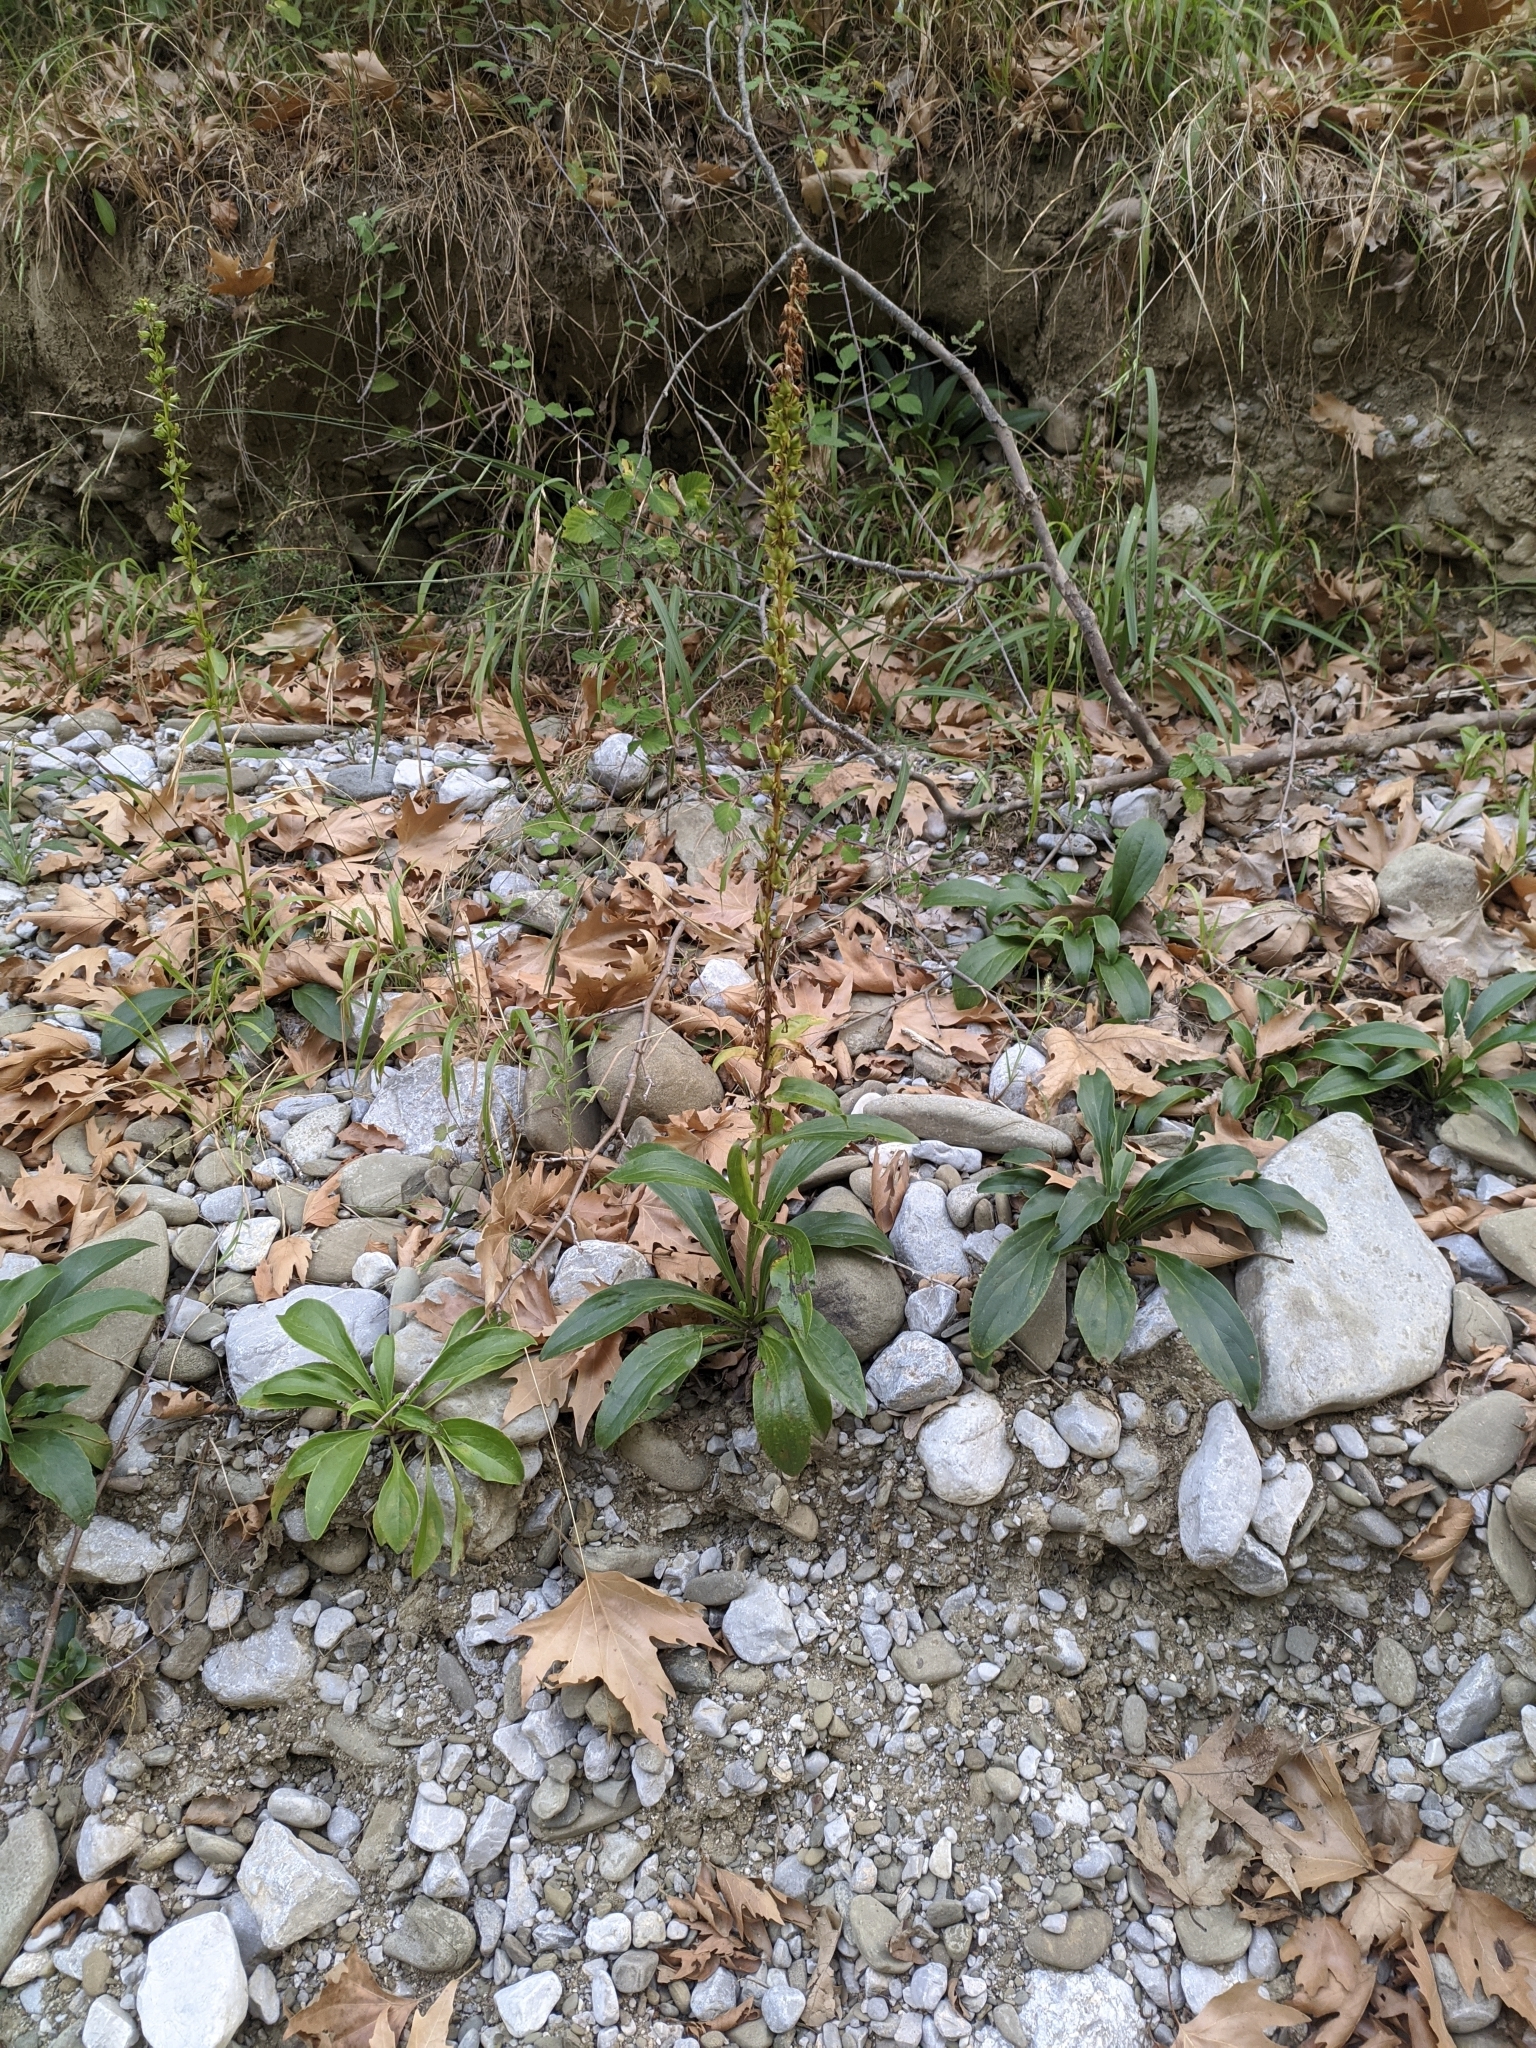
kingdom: Plantae
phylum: Tracheophyta
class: Magnoliopsida
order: Lamiales
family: Plantaginaceae
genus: Digitalis
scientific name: Digitalis laevigata
